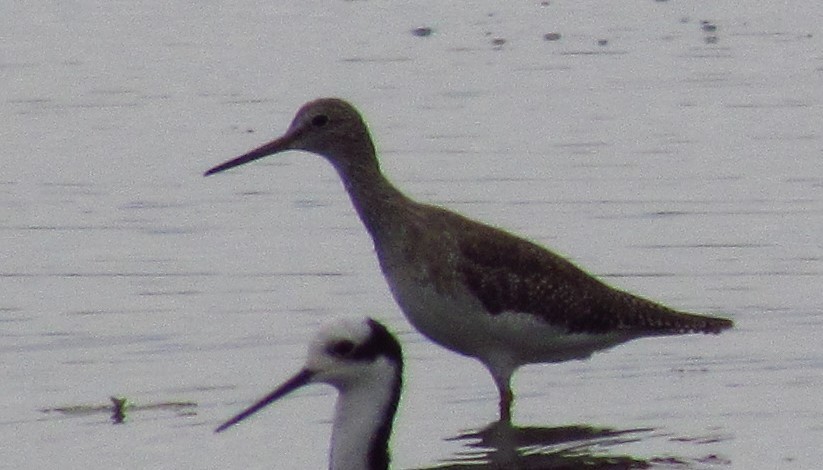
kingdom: Animalia
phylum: Chordata
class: Aves
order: Charadriiformes
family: Scolopacidae
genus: Tringa
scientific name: Tringa melanoleuca
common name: Greater yellowlegs
